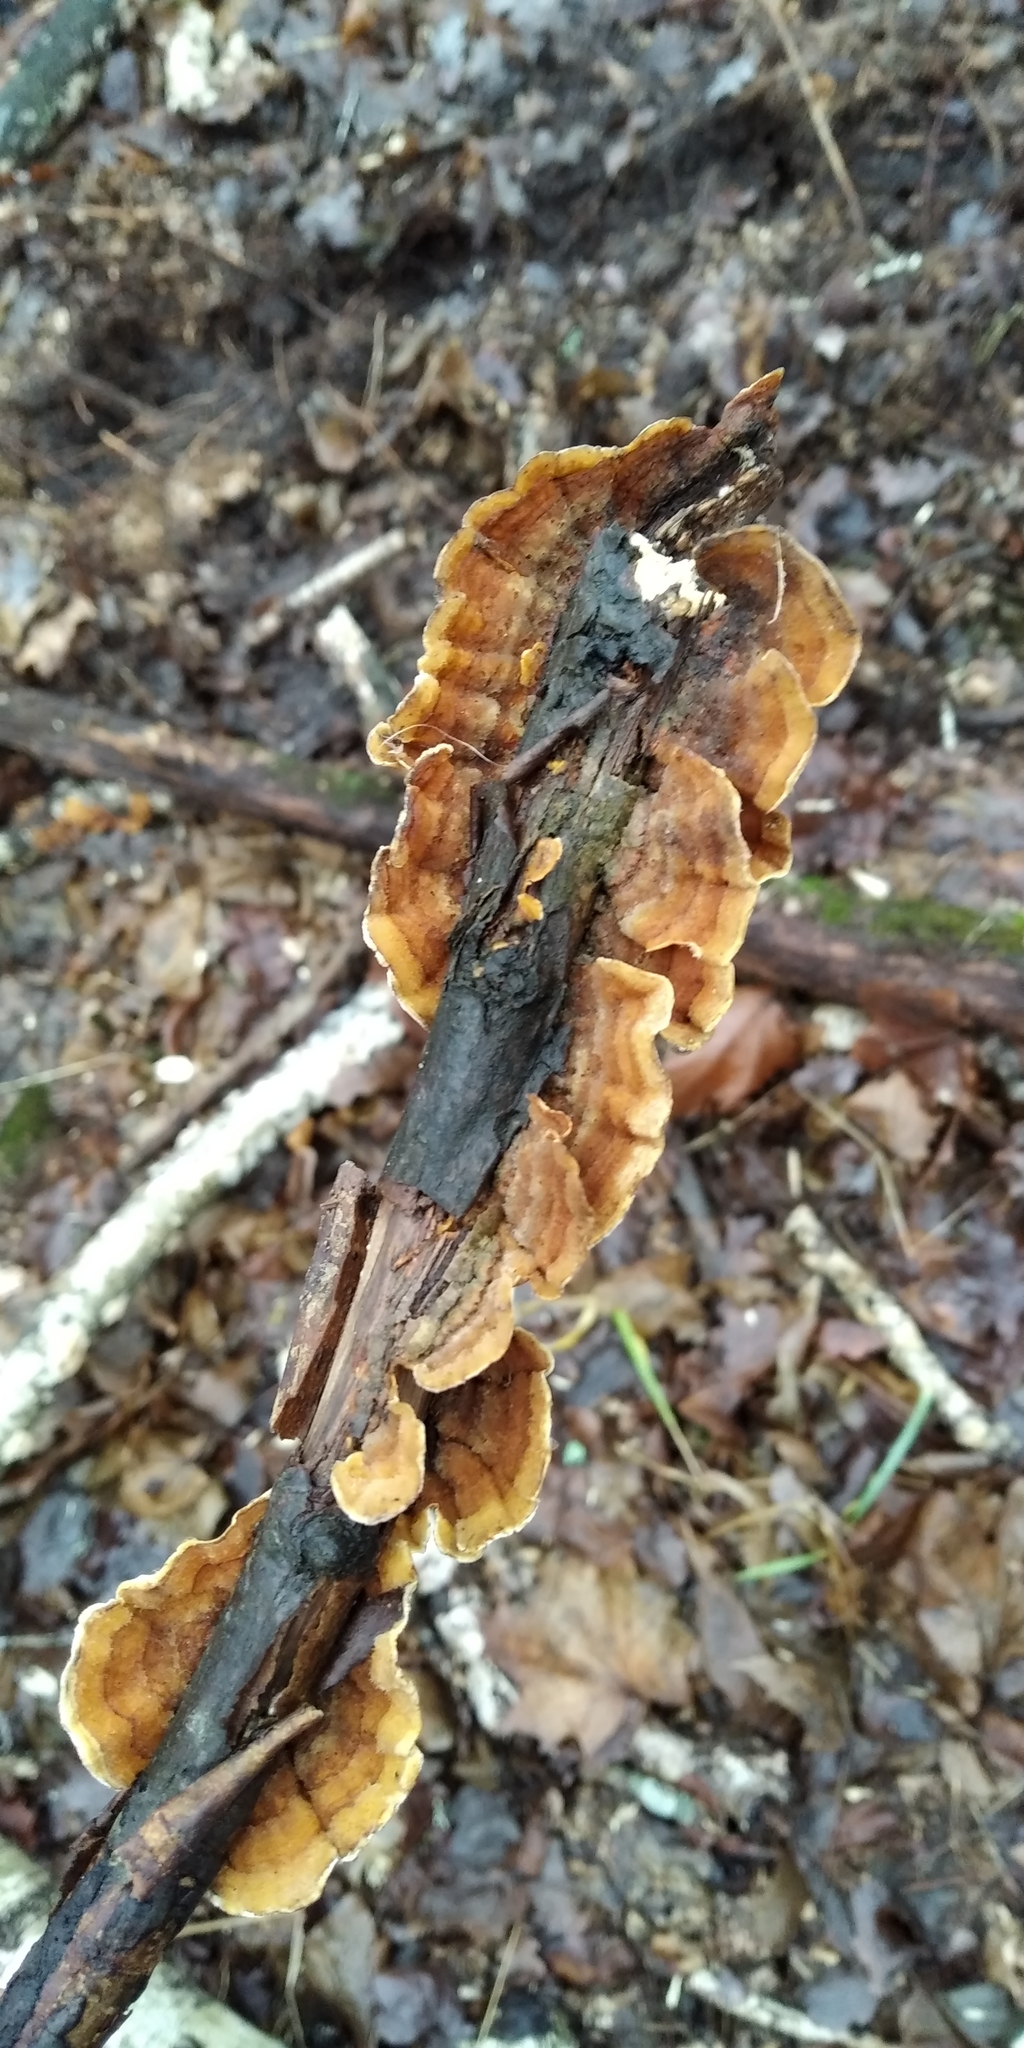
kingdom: Fungi
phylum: Basidiomycota
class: Agaricomycetes
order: Russulales
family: Stereaceae
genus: Stereum
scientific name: Stereum hirsutum
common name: Hairy curtain crust
